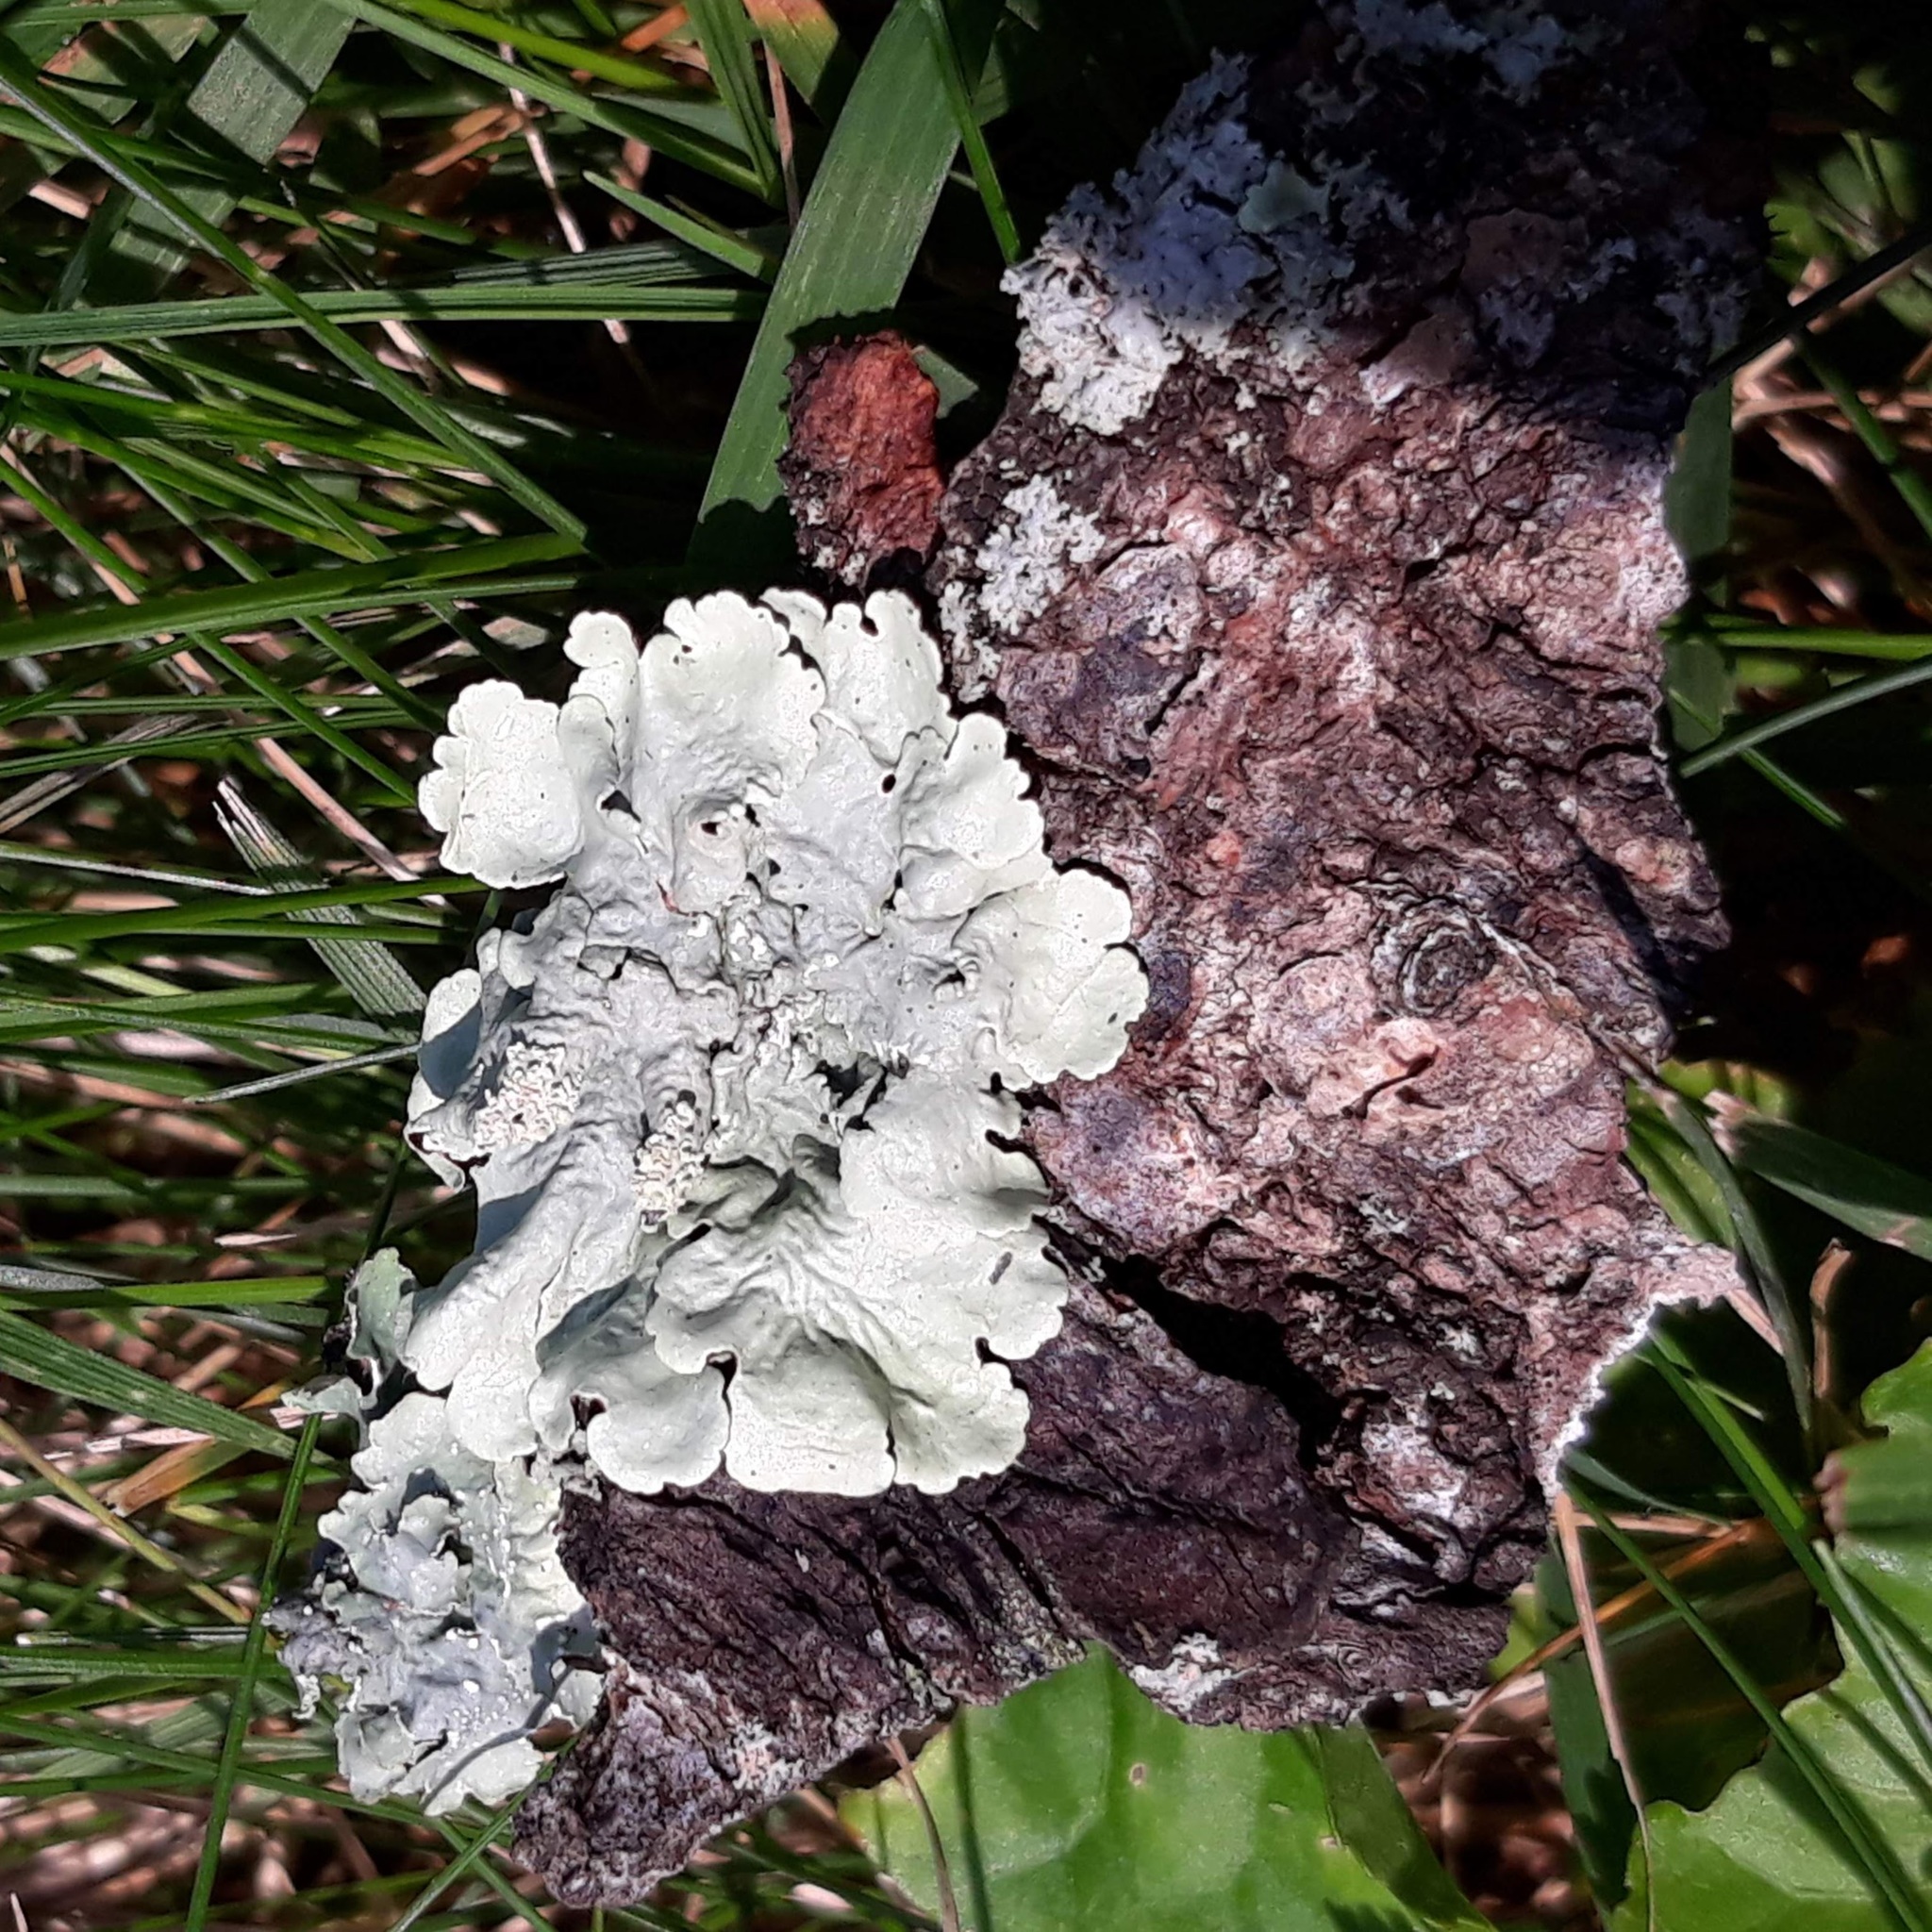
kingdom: Fungi
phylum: Ascomycota
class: Lecanoromycetes
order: Lecanorales
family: Parmeliaceae
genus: Flavoparmelia
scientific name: Flavoparmelia caperata
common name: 40-mile per hour lichen
